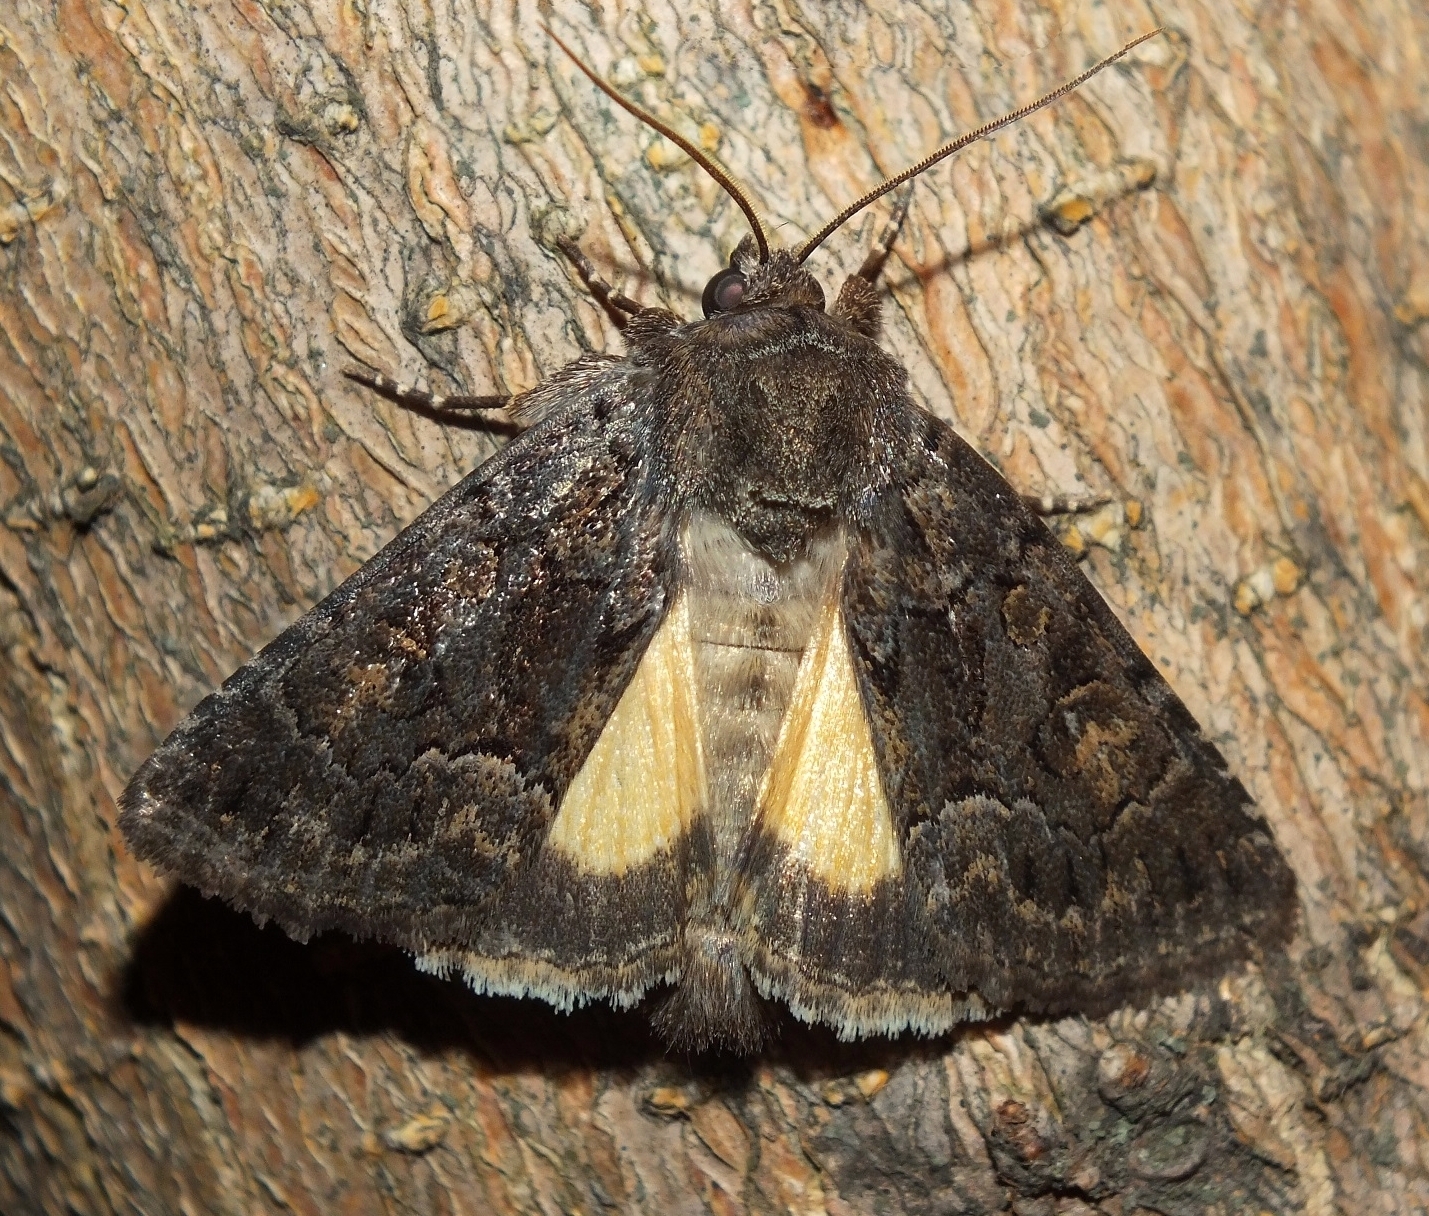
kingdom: Animalia
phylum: Arthropoda
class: Insecta
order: Lepidoptera
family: Noctuidae
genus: Thalpophila
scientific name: Thalpophila matura
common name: Straw underwing
